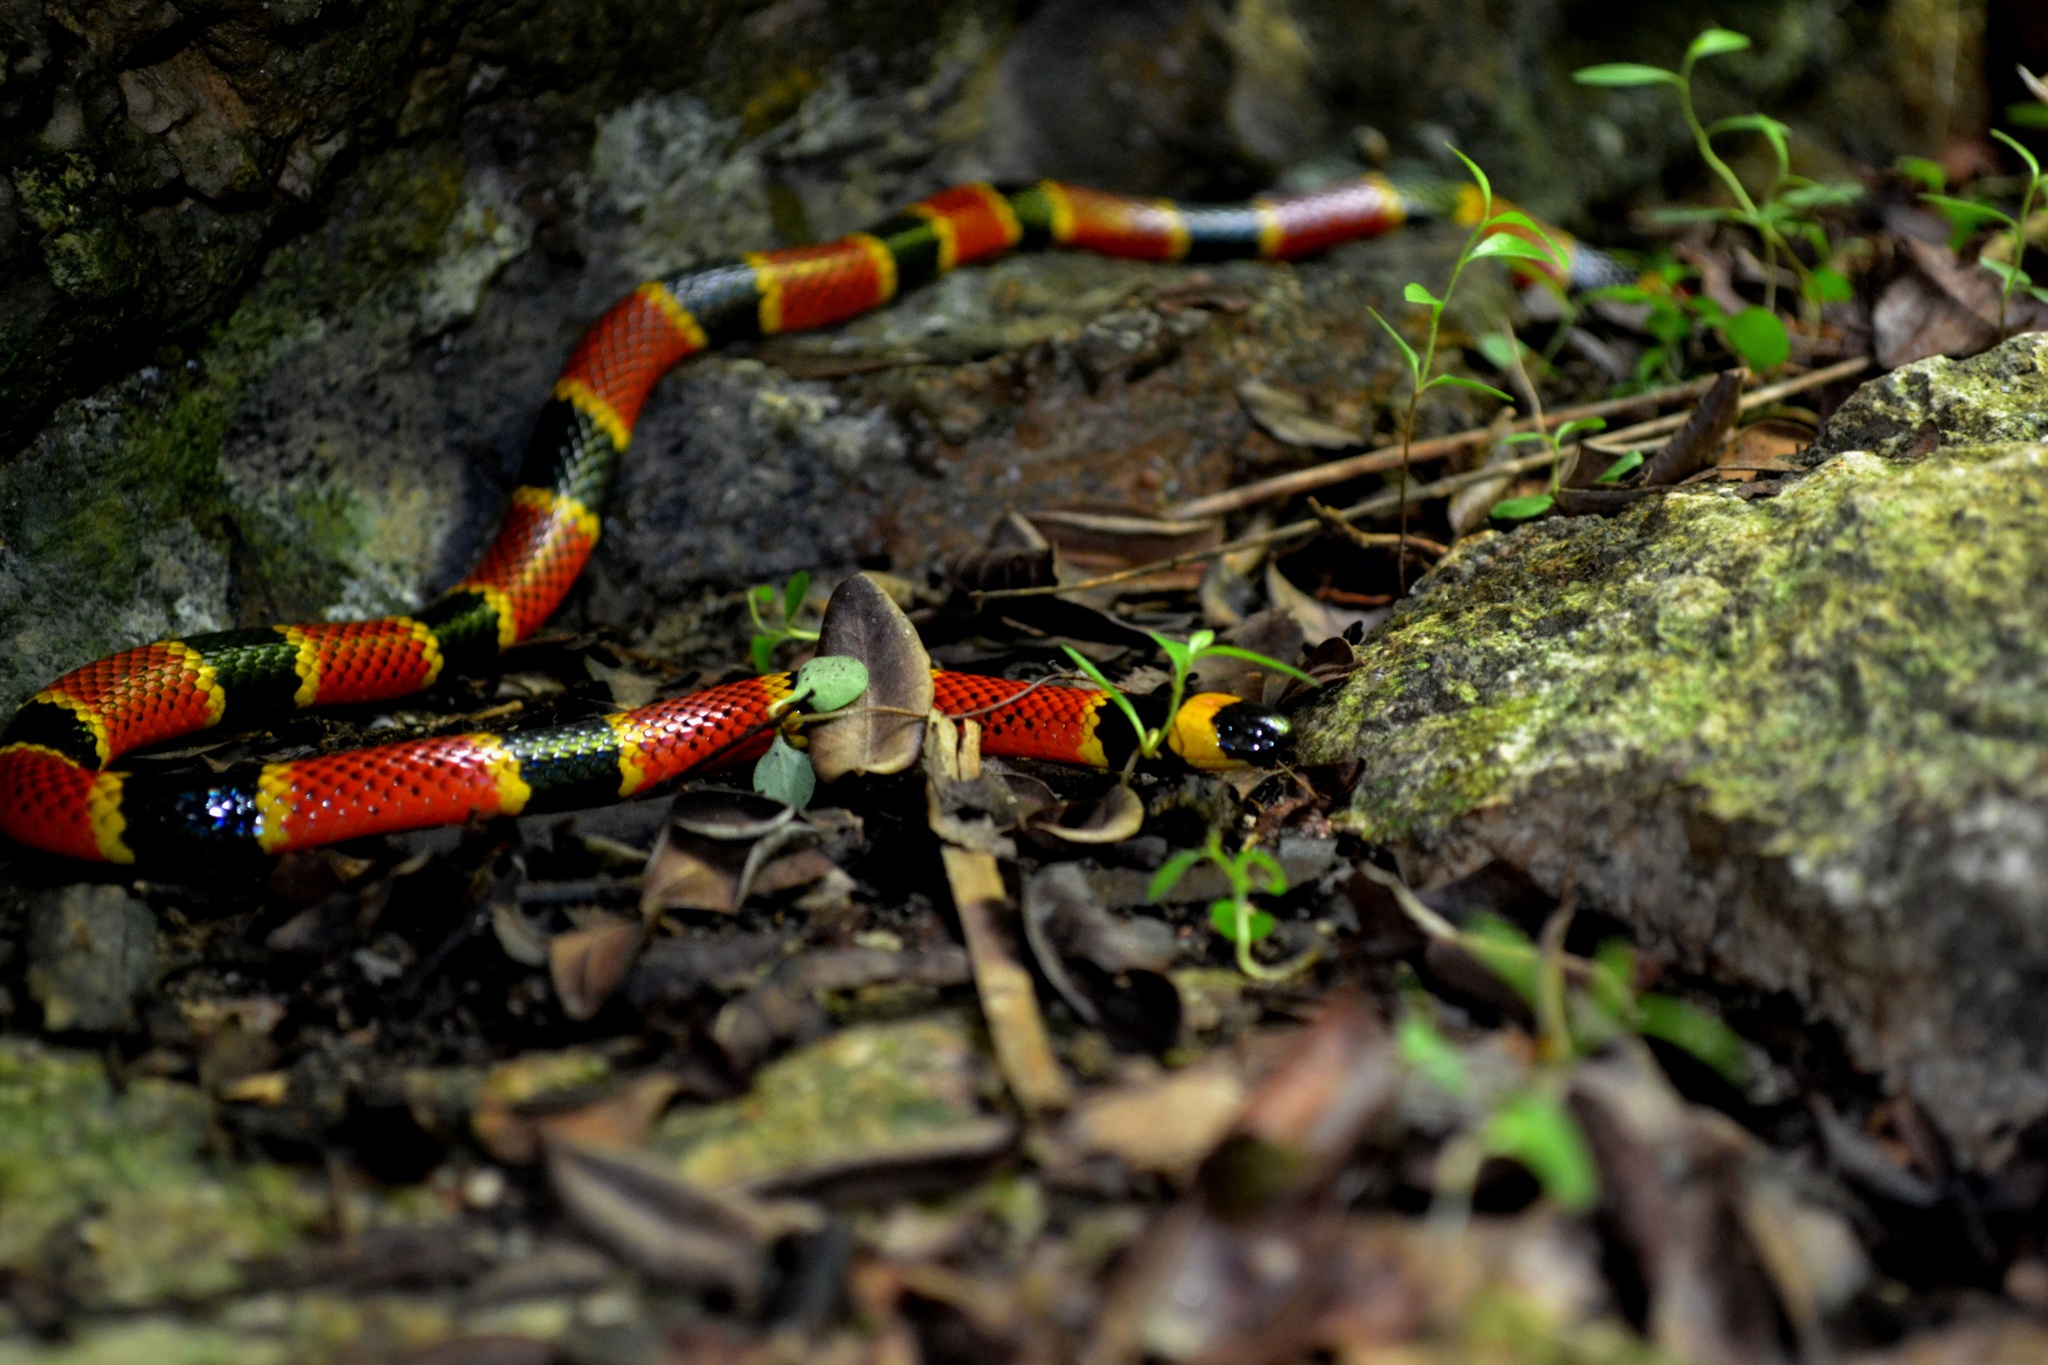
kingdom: Animalia
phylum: Chordata
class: Squamata
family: Elapidae
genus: Micrurus
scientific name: Micrurus browni
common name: Brown's coral snake
